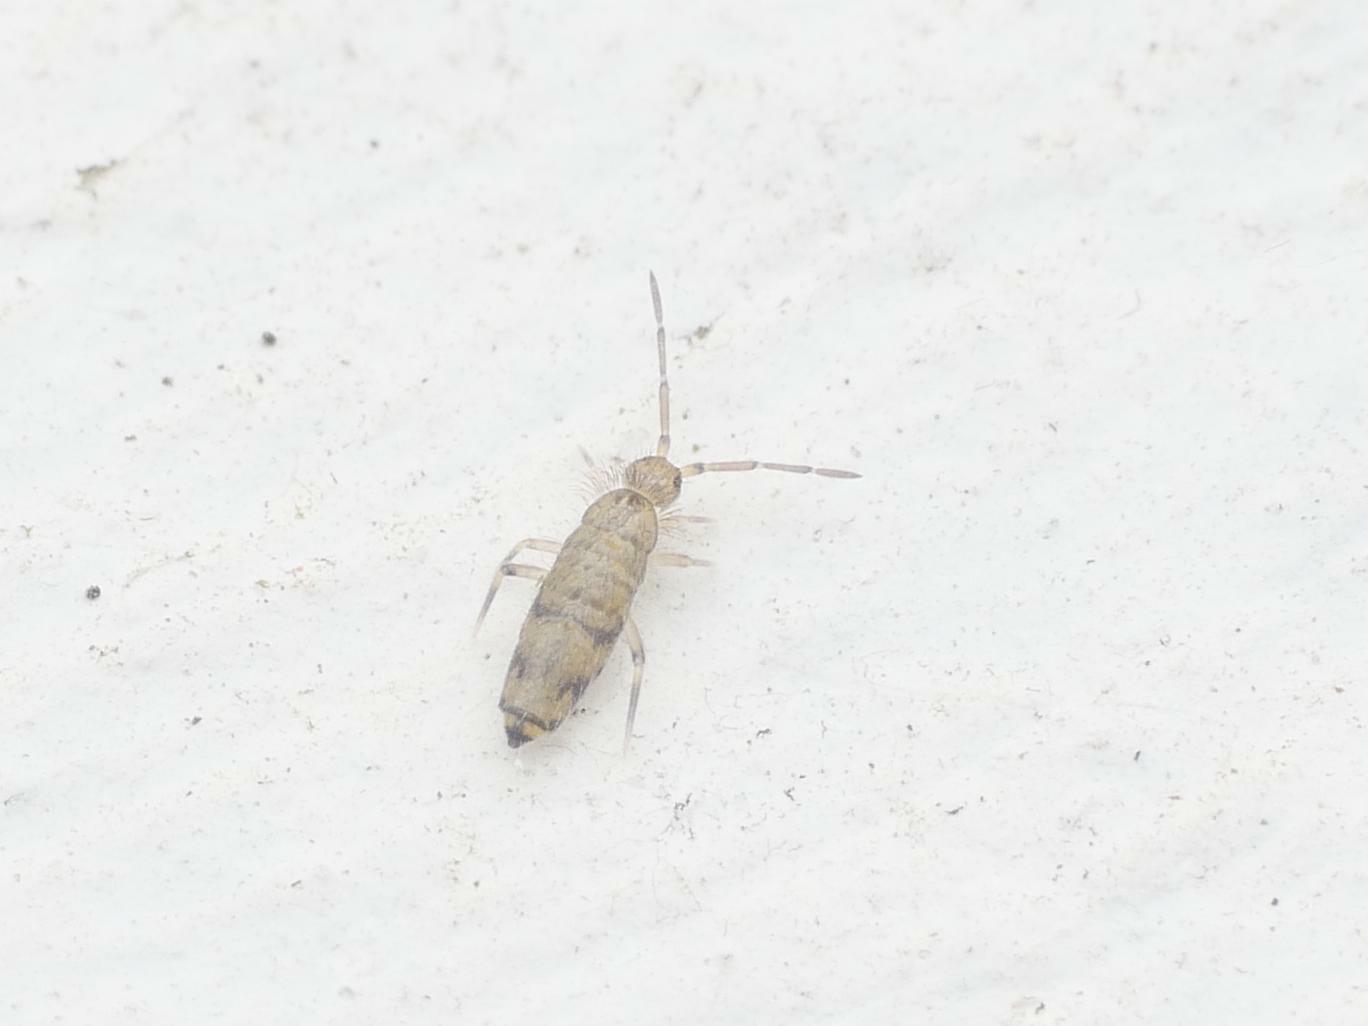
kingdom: Animalia
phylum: Arthropoda
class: Collembola
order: Entomobryomorpha
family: Entomobryidae
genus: Willowsia
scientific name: Willowsia nigromaculata
